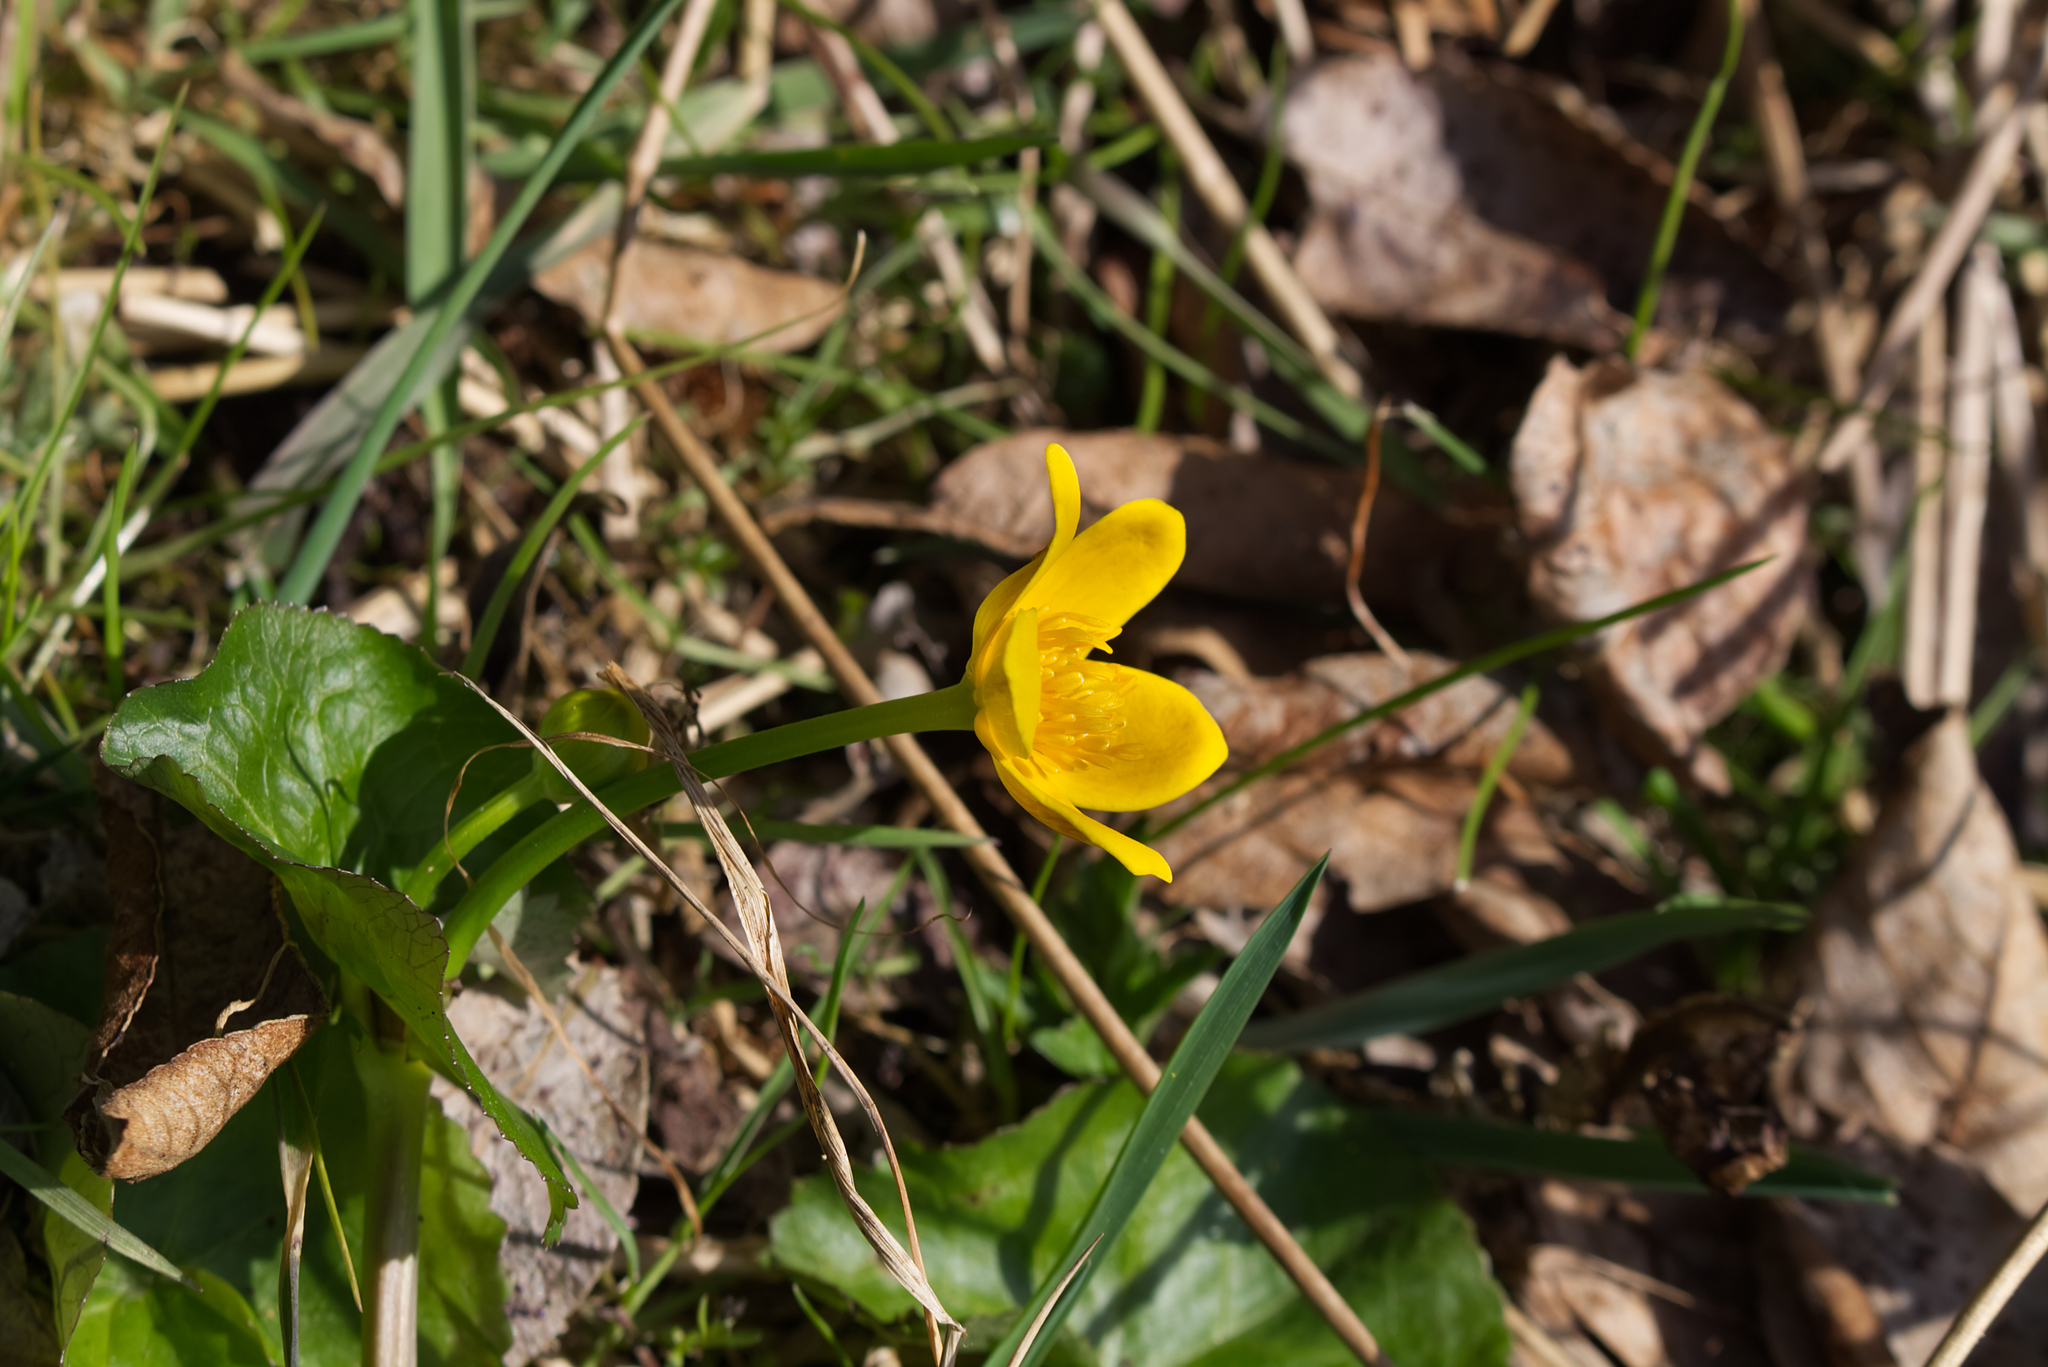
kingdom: Plantae
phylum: Tracheophyta
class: Magnoliopsida
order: Ranunculales
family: Ranunculaceae
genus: Caltha
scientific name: Caltha palustris
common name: Marsh marigold
